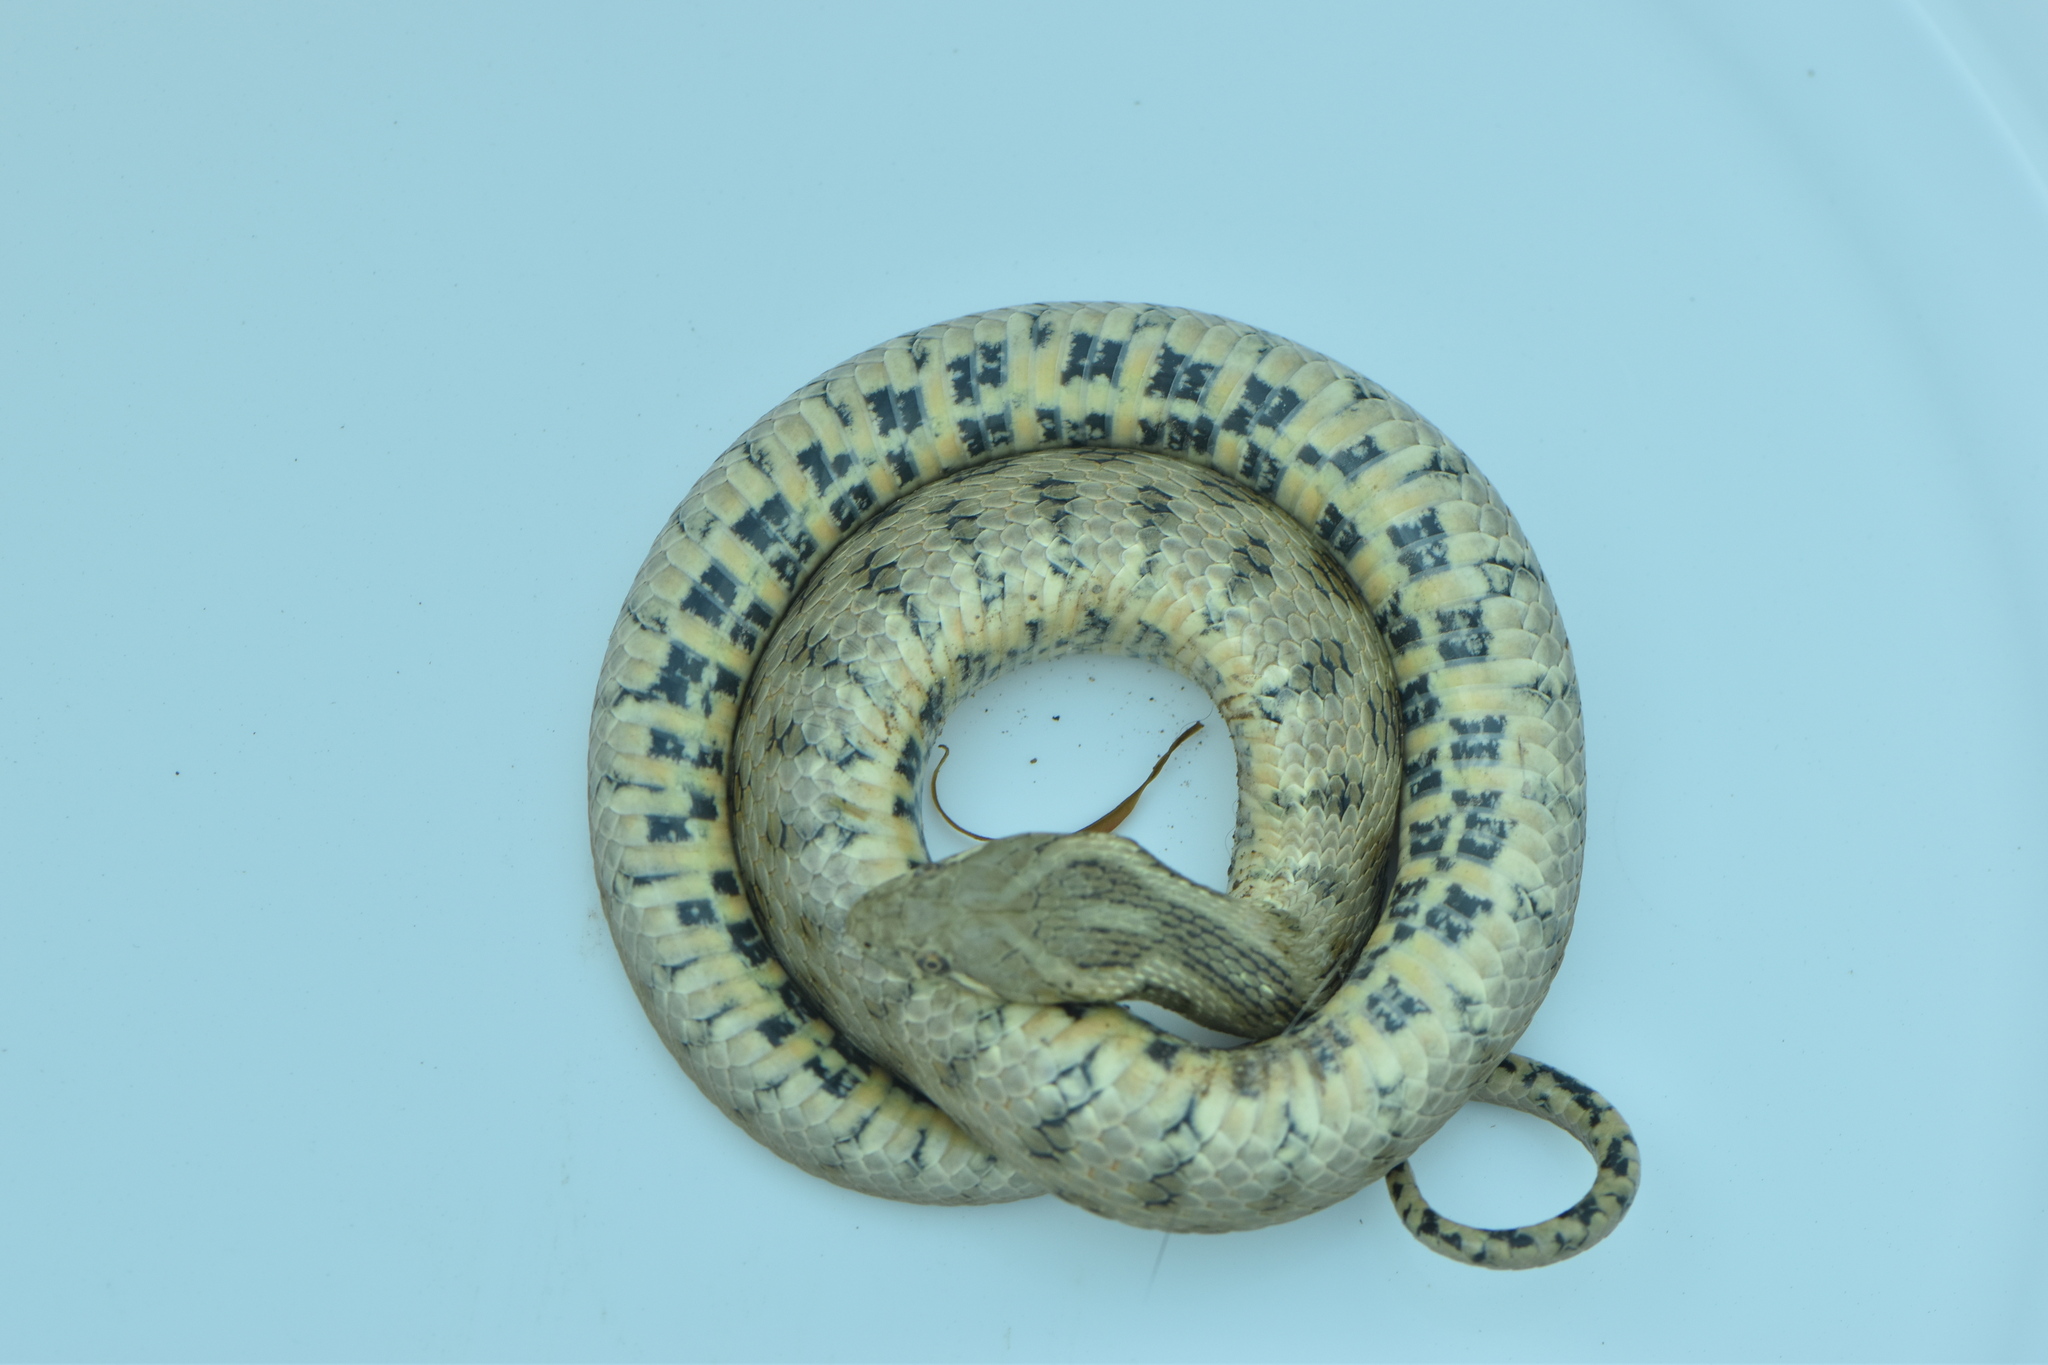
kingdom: Animalia
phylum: Chordata
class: Squamata
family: Colubridae
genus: Natrix
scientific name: Natrix maura
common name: Viperine water snake
